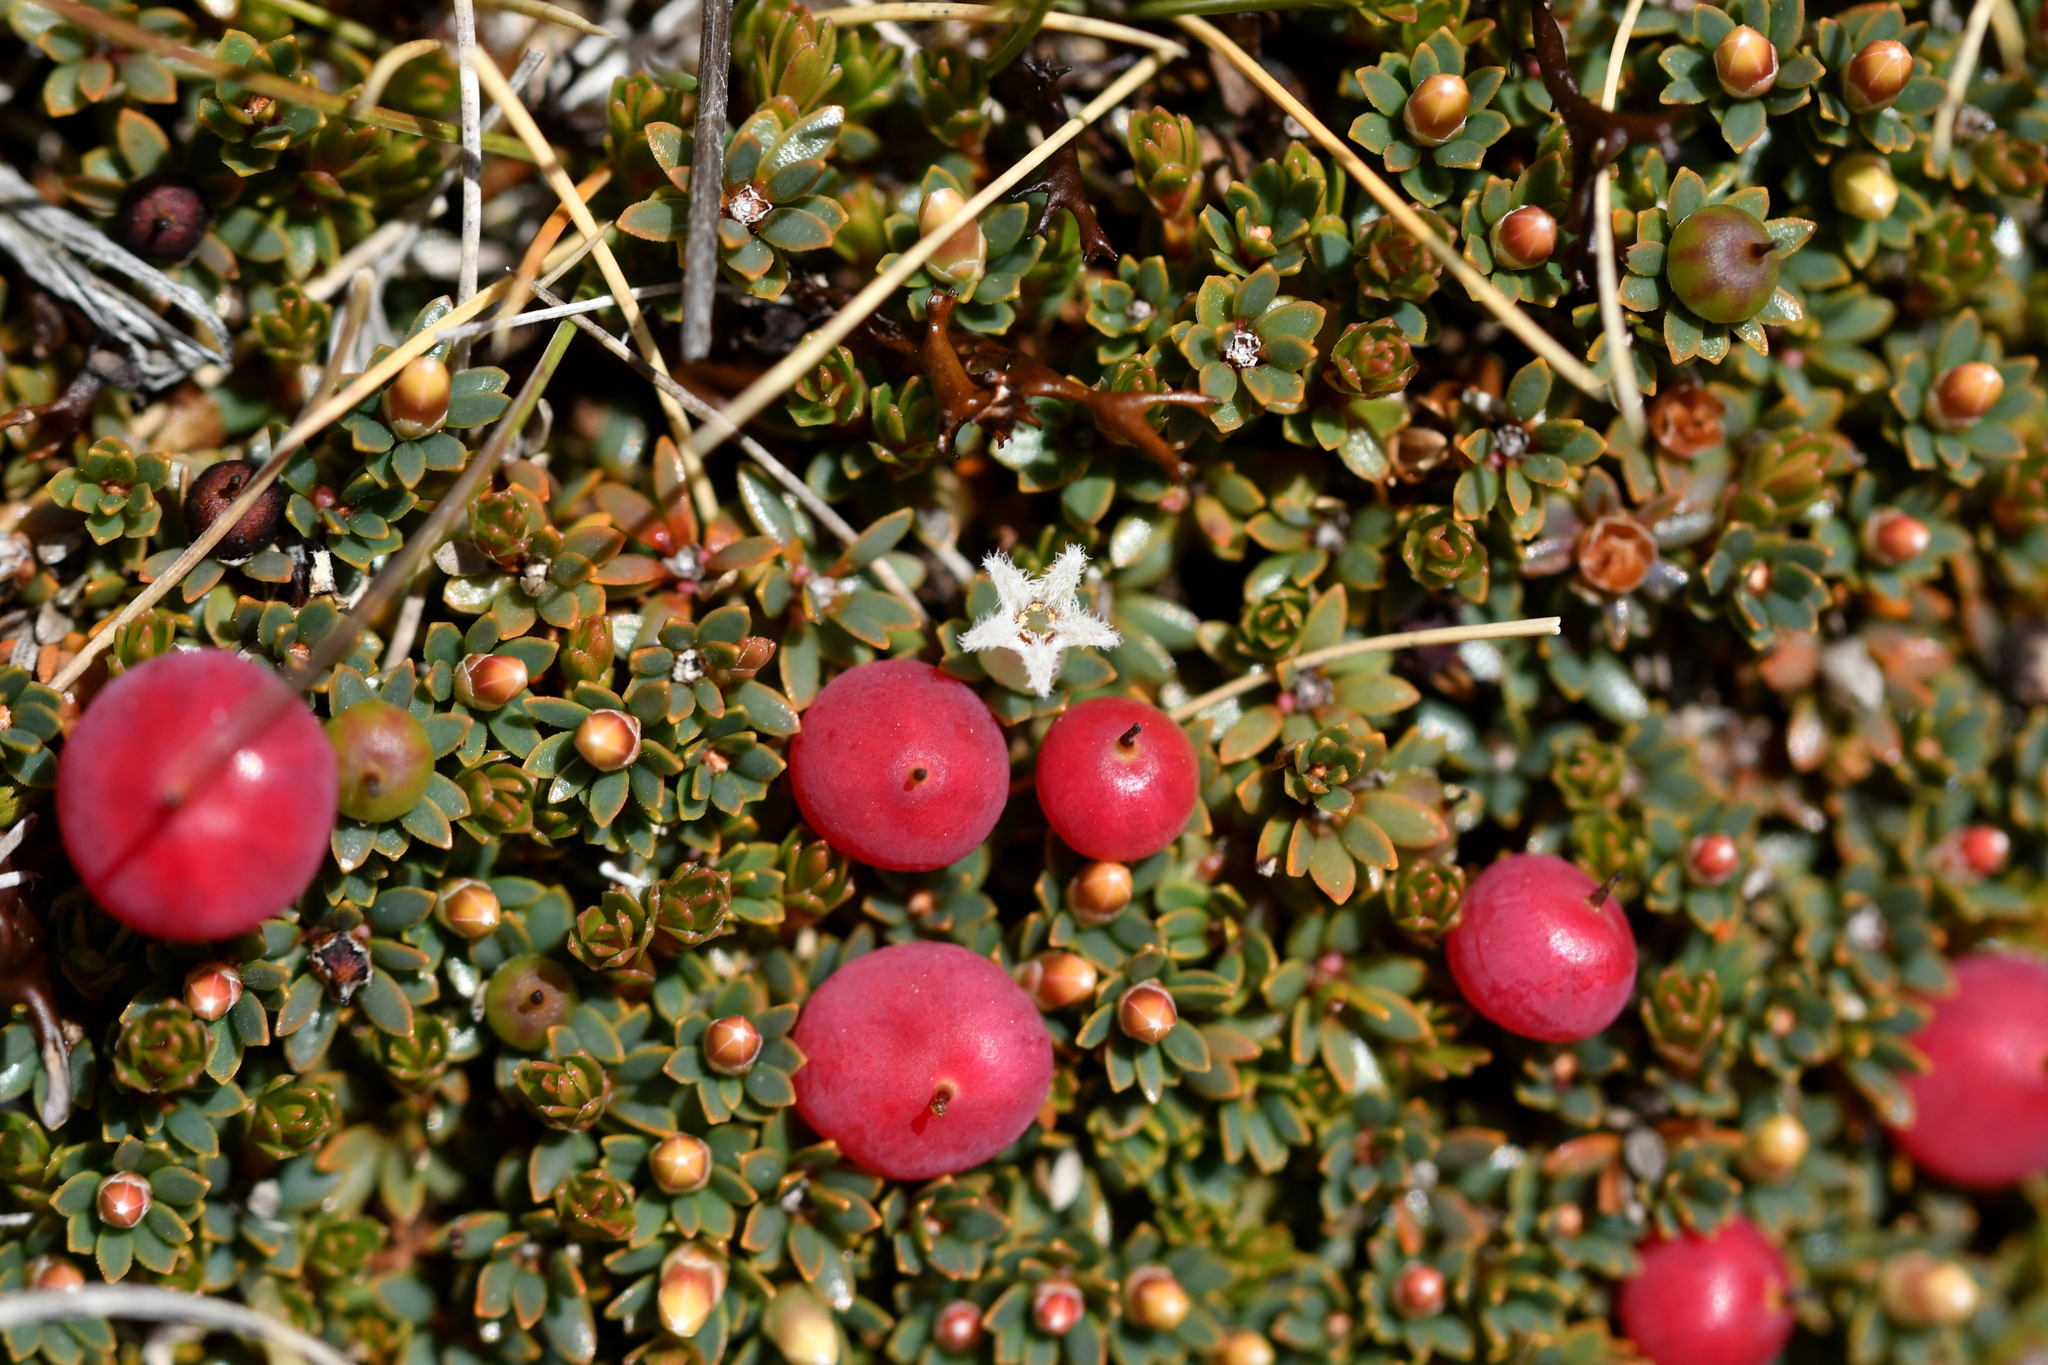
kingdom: Plantae
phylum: Tracheophyta
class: Magnoliopsida
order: Ericales
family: Ericaceae
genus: Pentachondra
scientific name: Pentachondra pumila
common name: Carpet-heath
